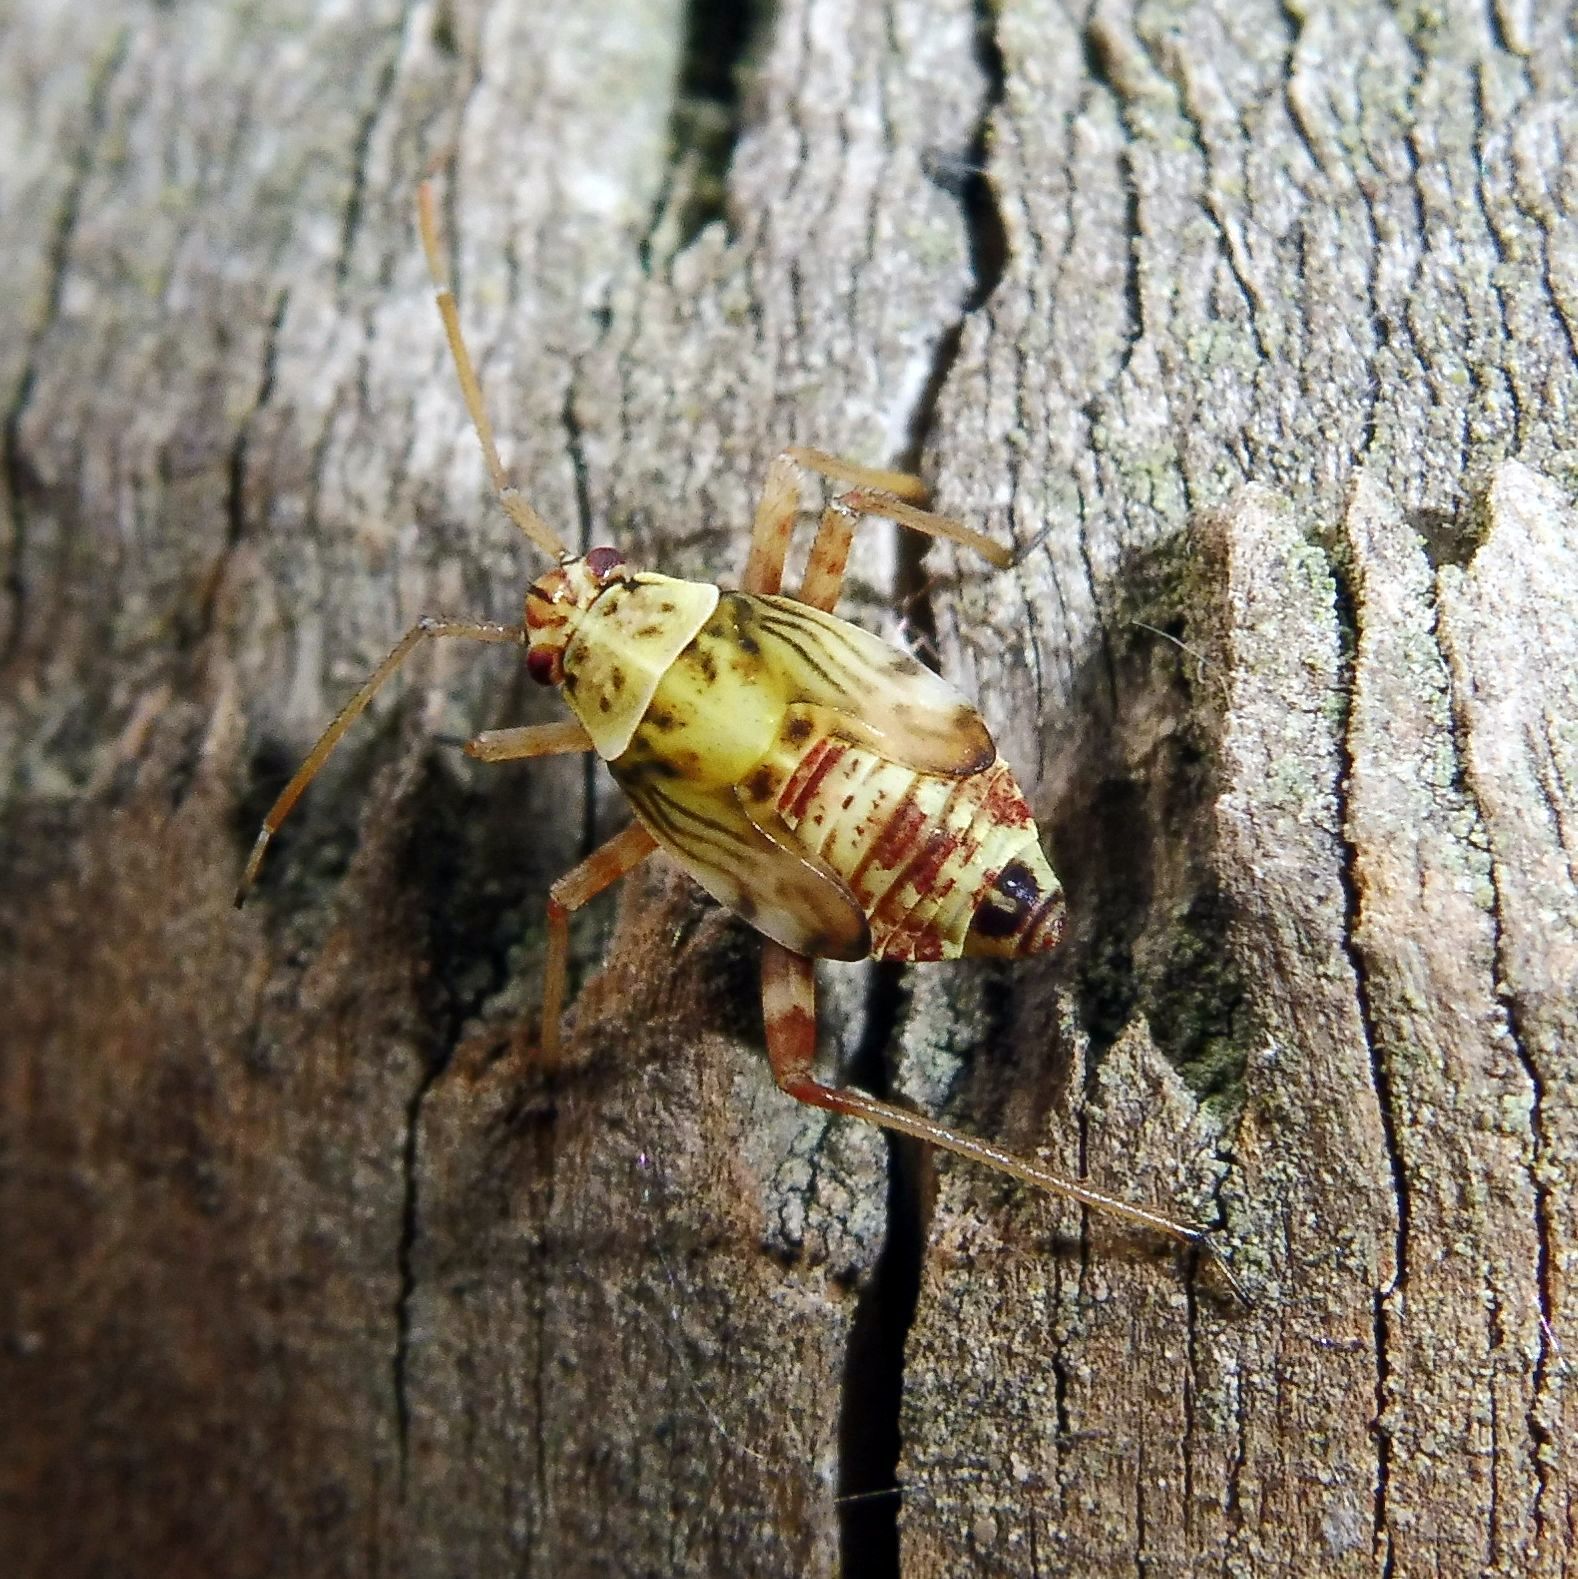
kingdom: Animalia
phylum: Arthropoda
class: Insecta
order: Hemiptera
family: Miridae
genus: Rhabdomiris
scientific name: Rhabdomiris striatellus
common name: Plant bug
